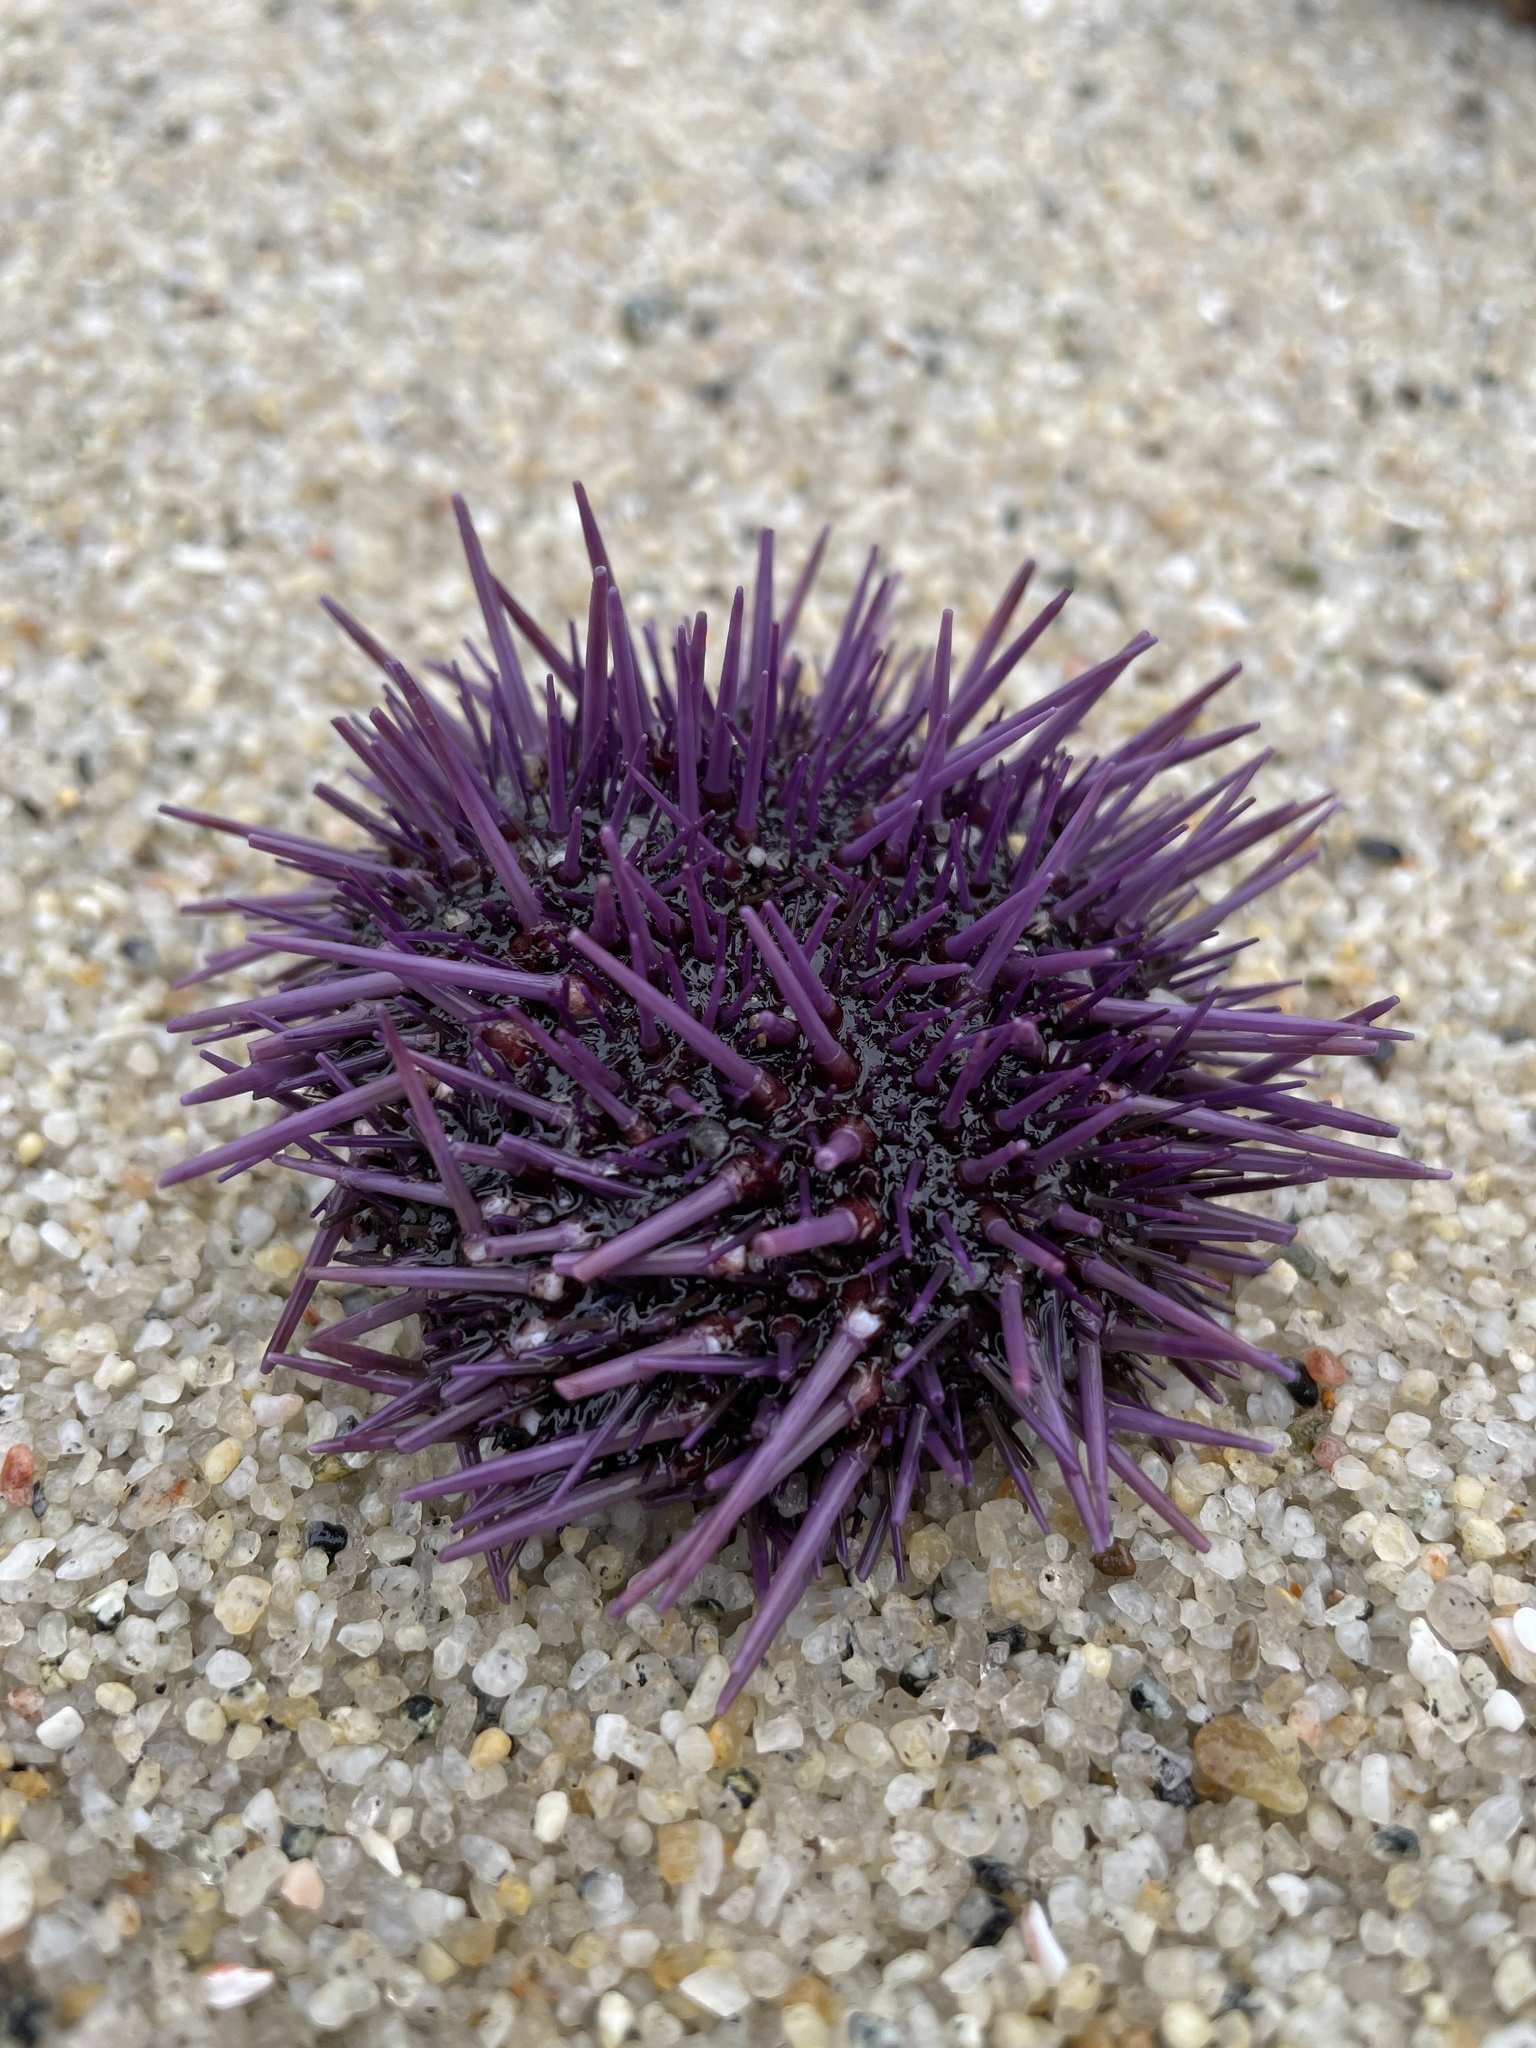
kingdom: Animalia
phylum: Echinodermata
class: Echinoidea
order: Camarodonta
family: Strongylocentrotidae
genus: Strongylocentrotus
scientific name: Strongylocentrotus purpuratus
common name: Purple sea urchin
